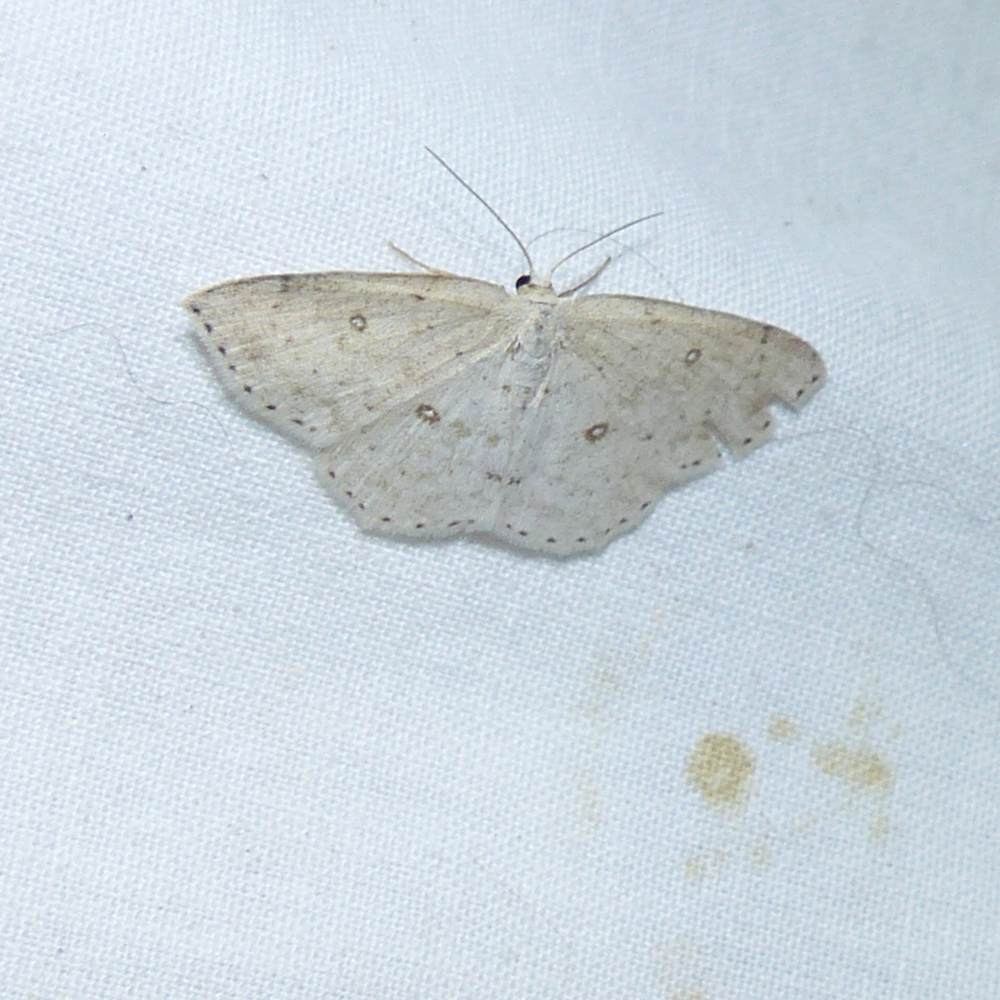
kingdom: Animalia
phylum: Arthropoda
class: Insecta
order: Lepidoptera
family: Geometridae
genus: Cyclophora
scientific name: Cyclophora pendulinaria
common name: Sweet fern geometer
